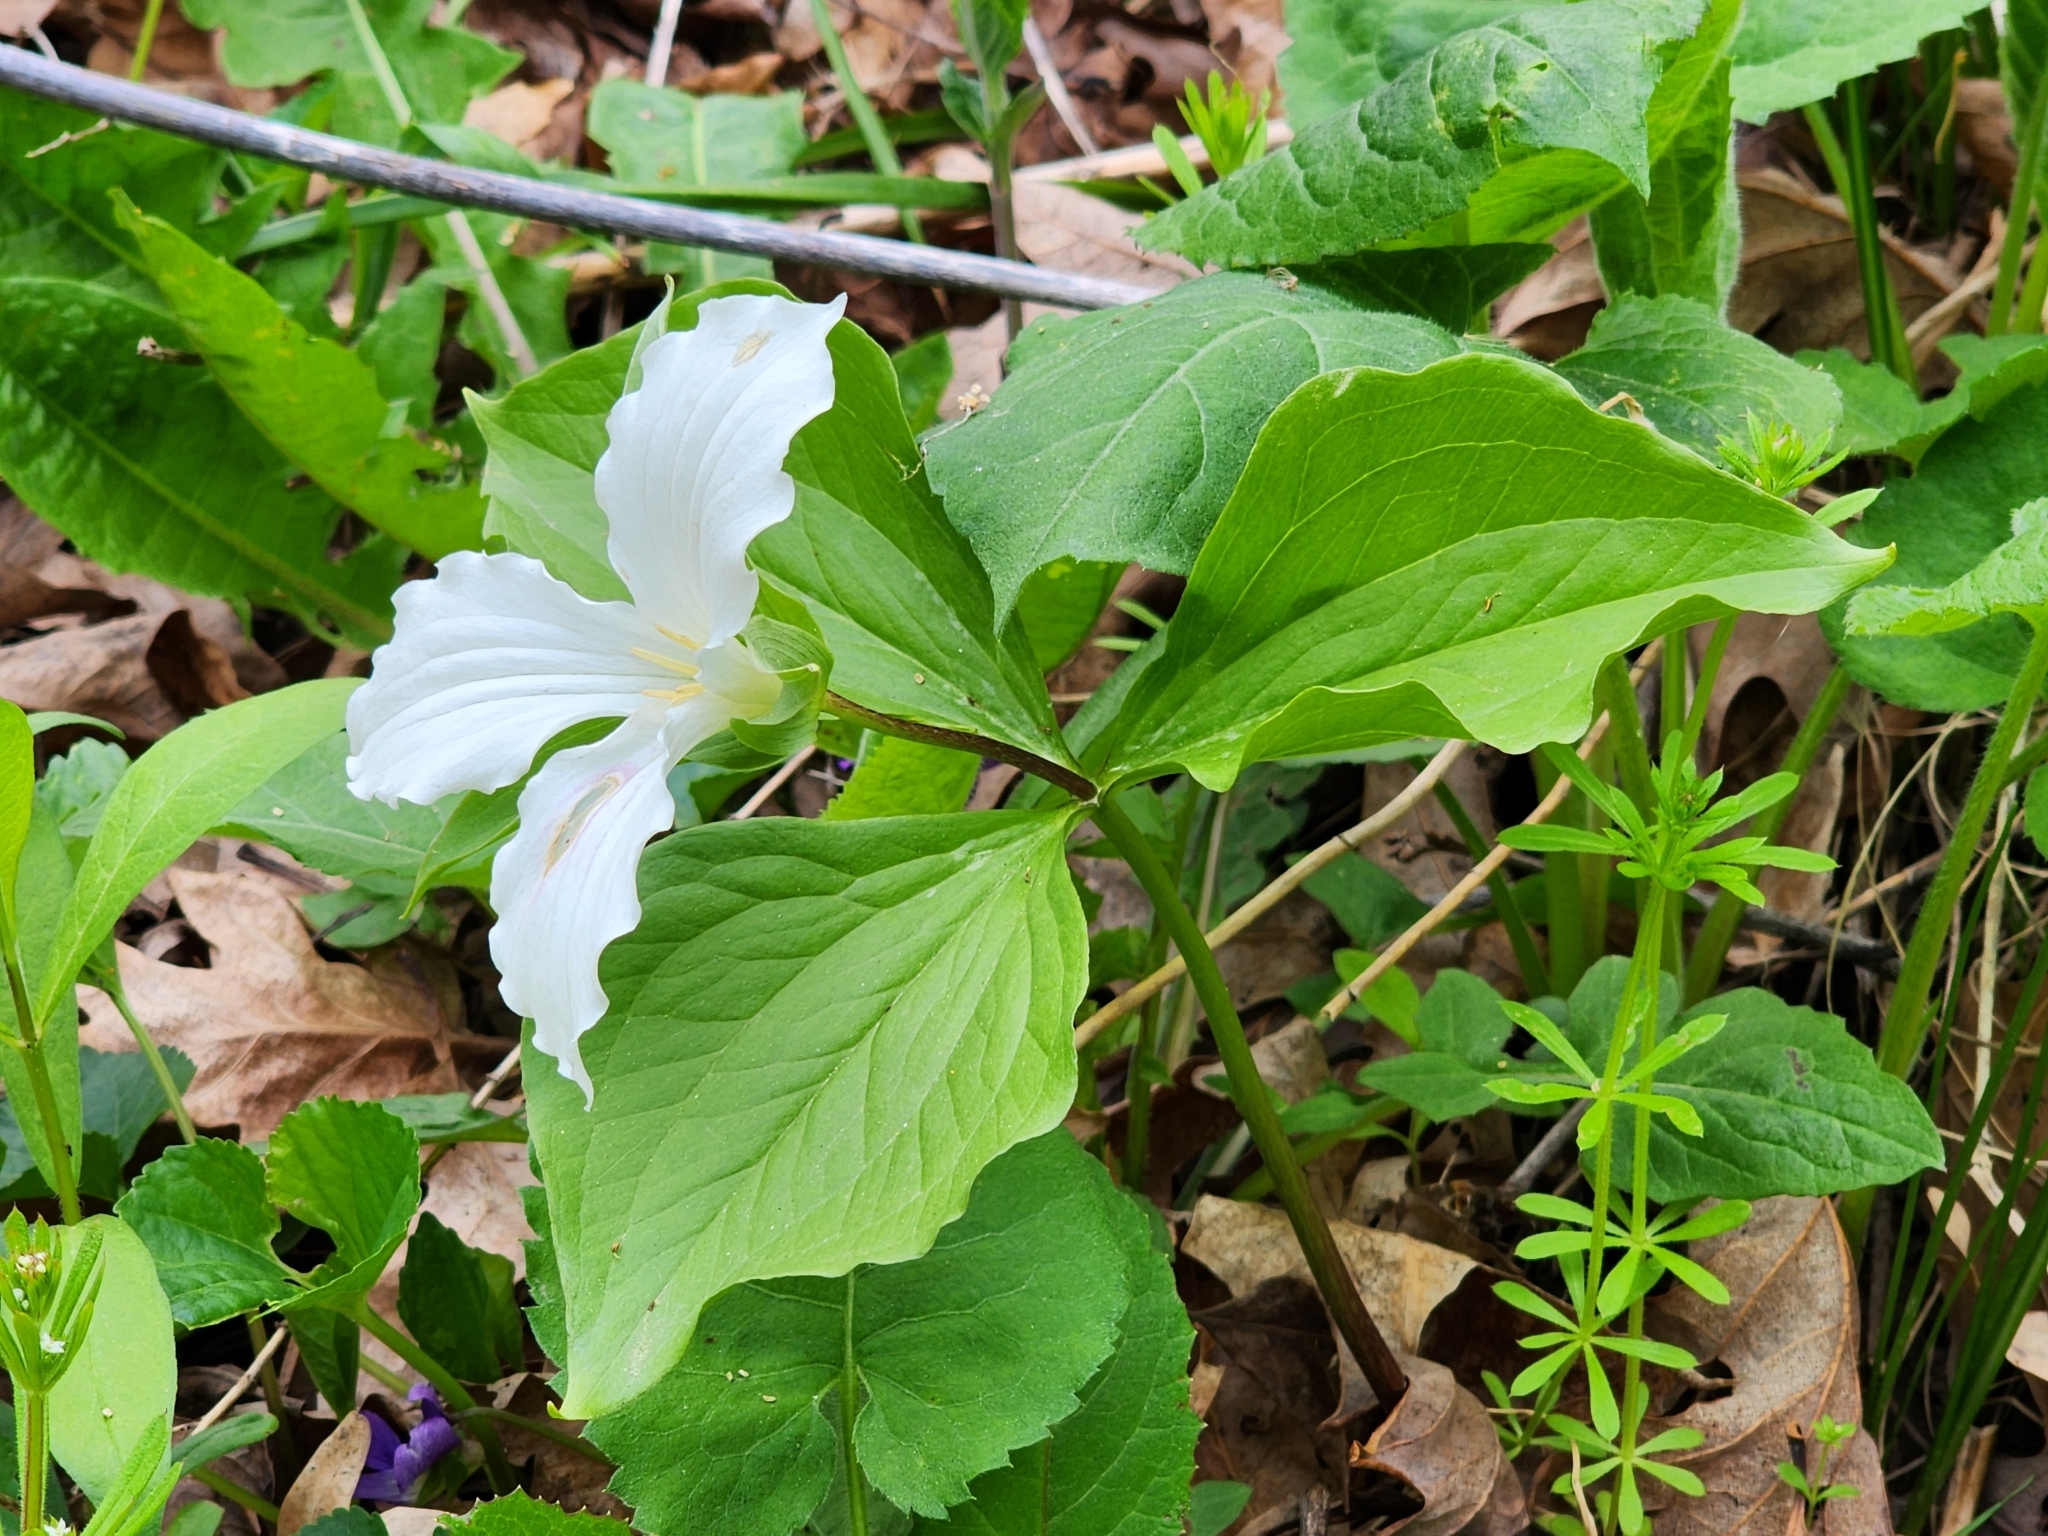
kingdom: Plantae
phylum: Tracheophyta
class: Liliopsida
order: Liliales
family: Melanthiaceae
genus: Trillium
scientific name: Trillium grandiflorum
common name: Great white trillium
